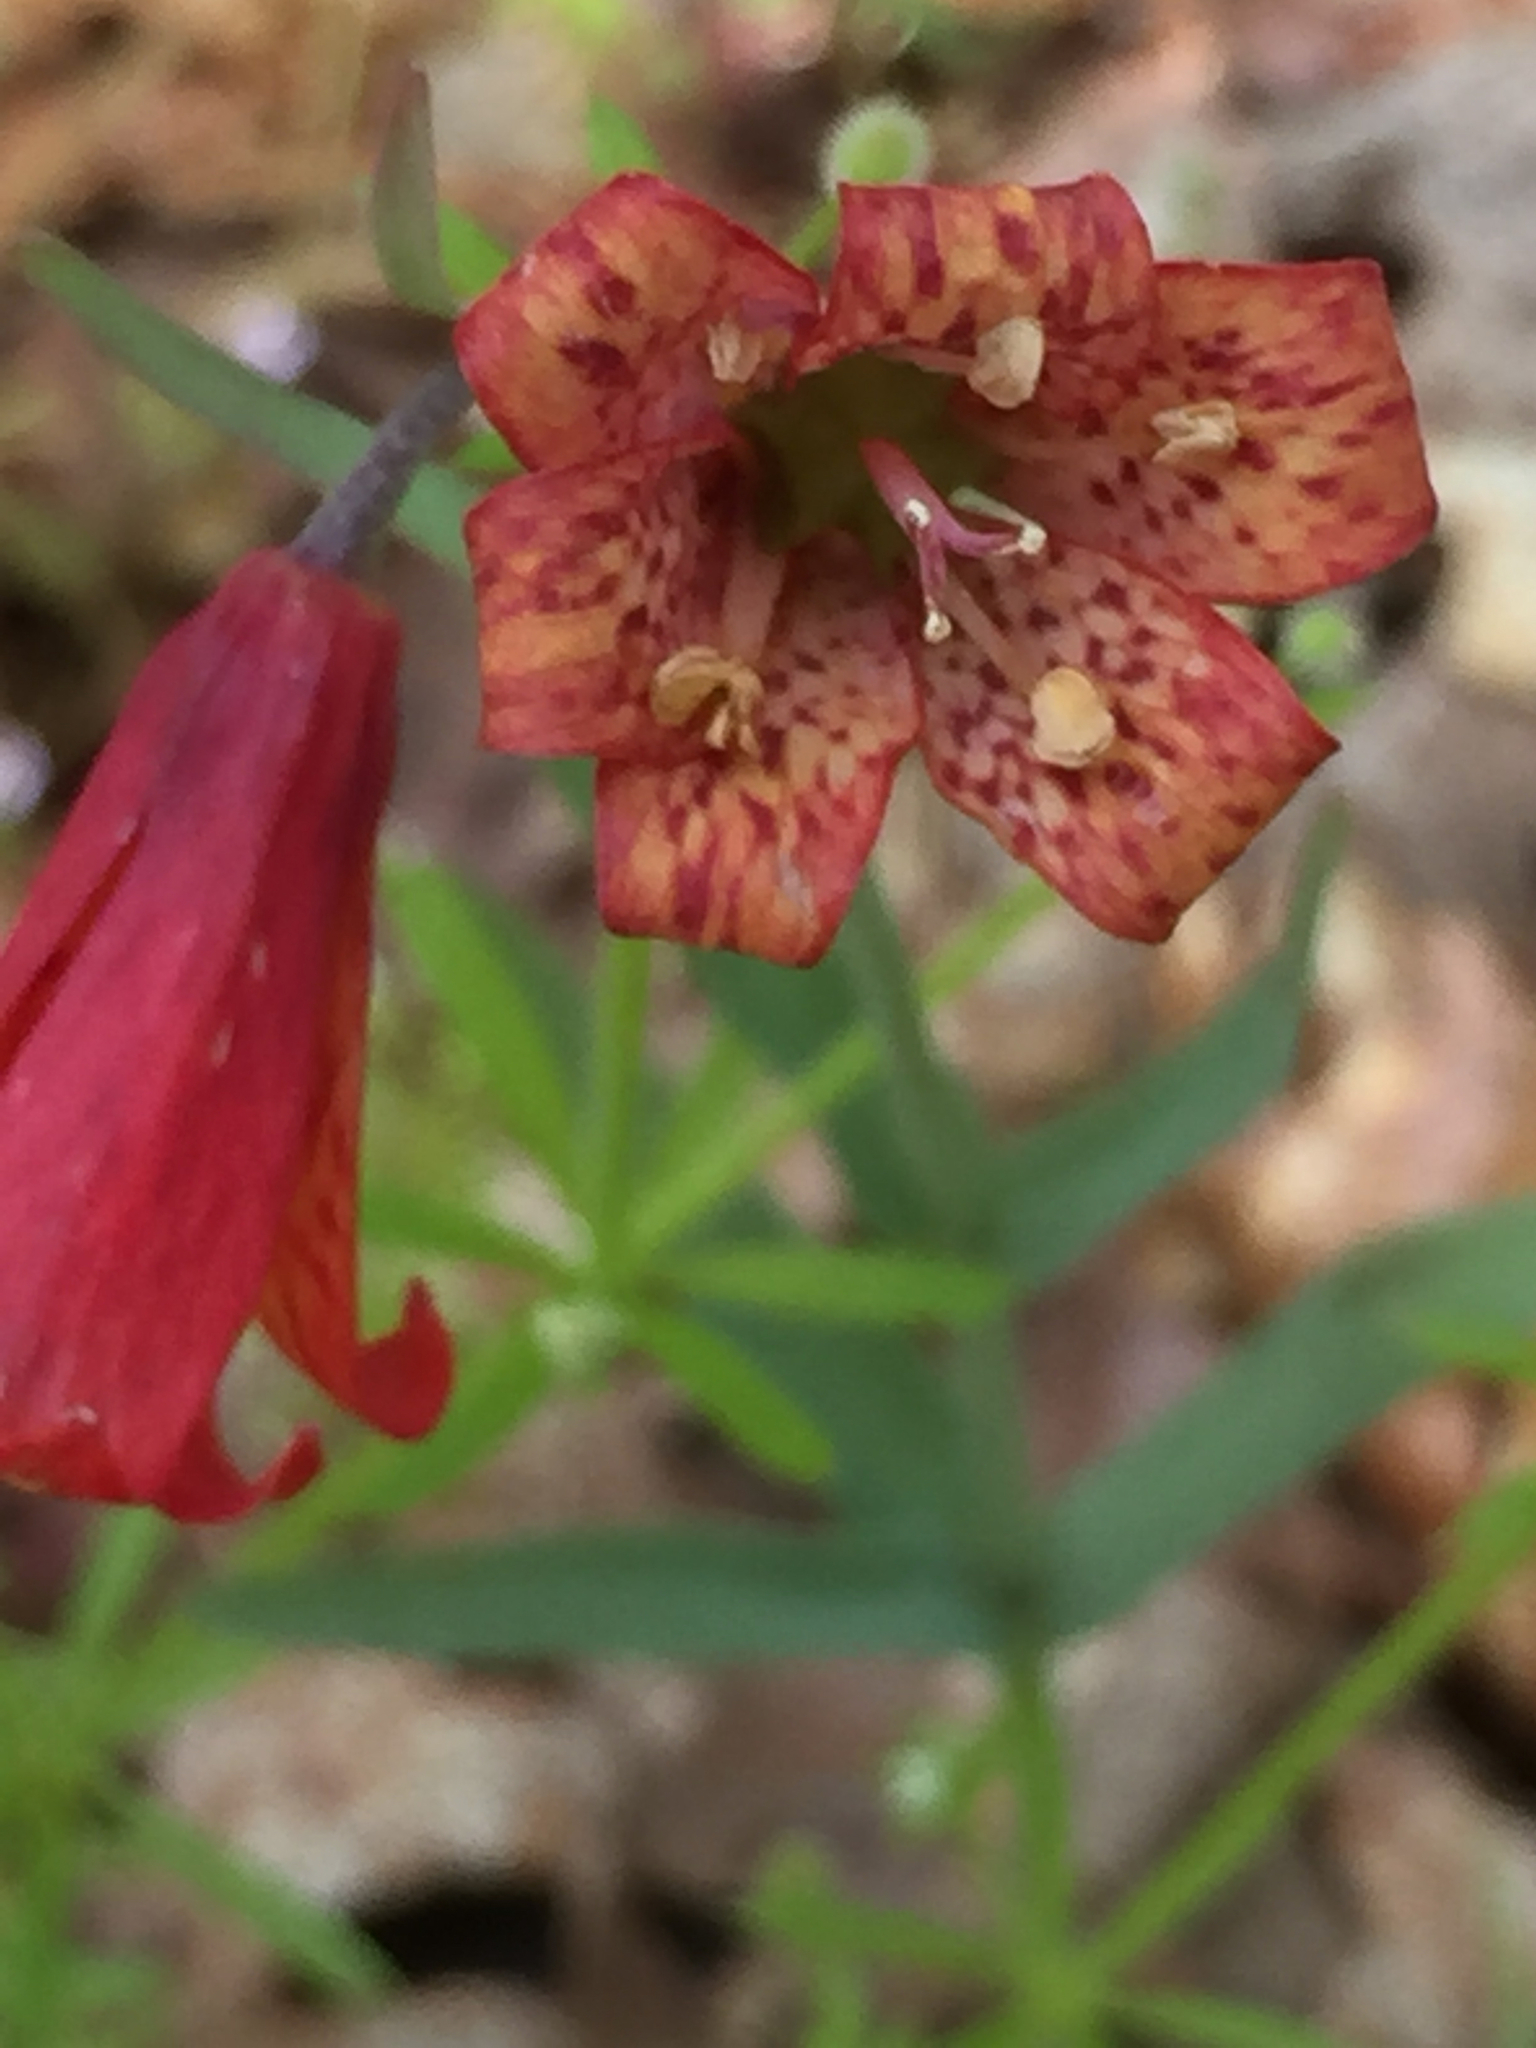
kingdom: Plantae
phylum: Tracheophyta
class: Liliopsida
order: Liliales
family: Liliaceae
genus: Fritillaria
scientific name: Fritillaria recurva
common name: Scarlet fritillary
